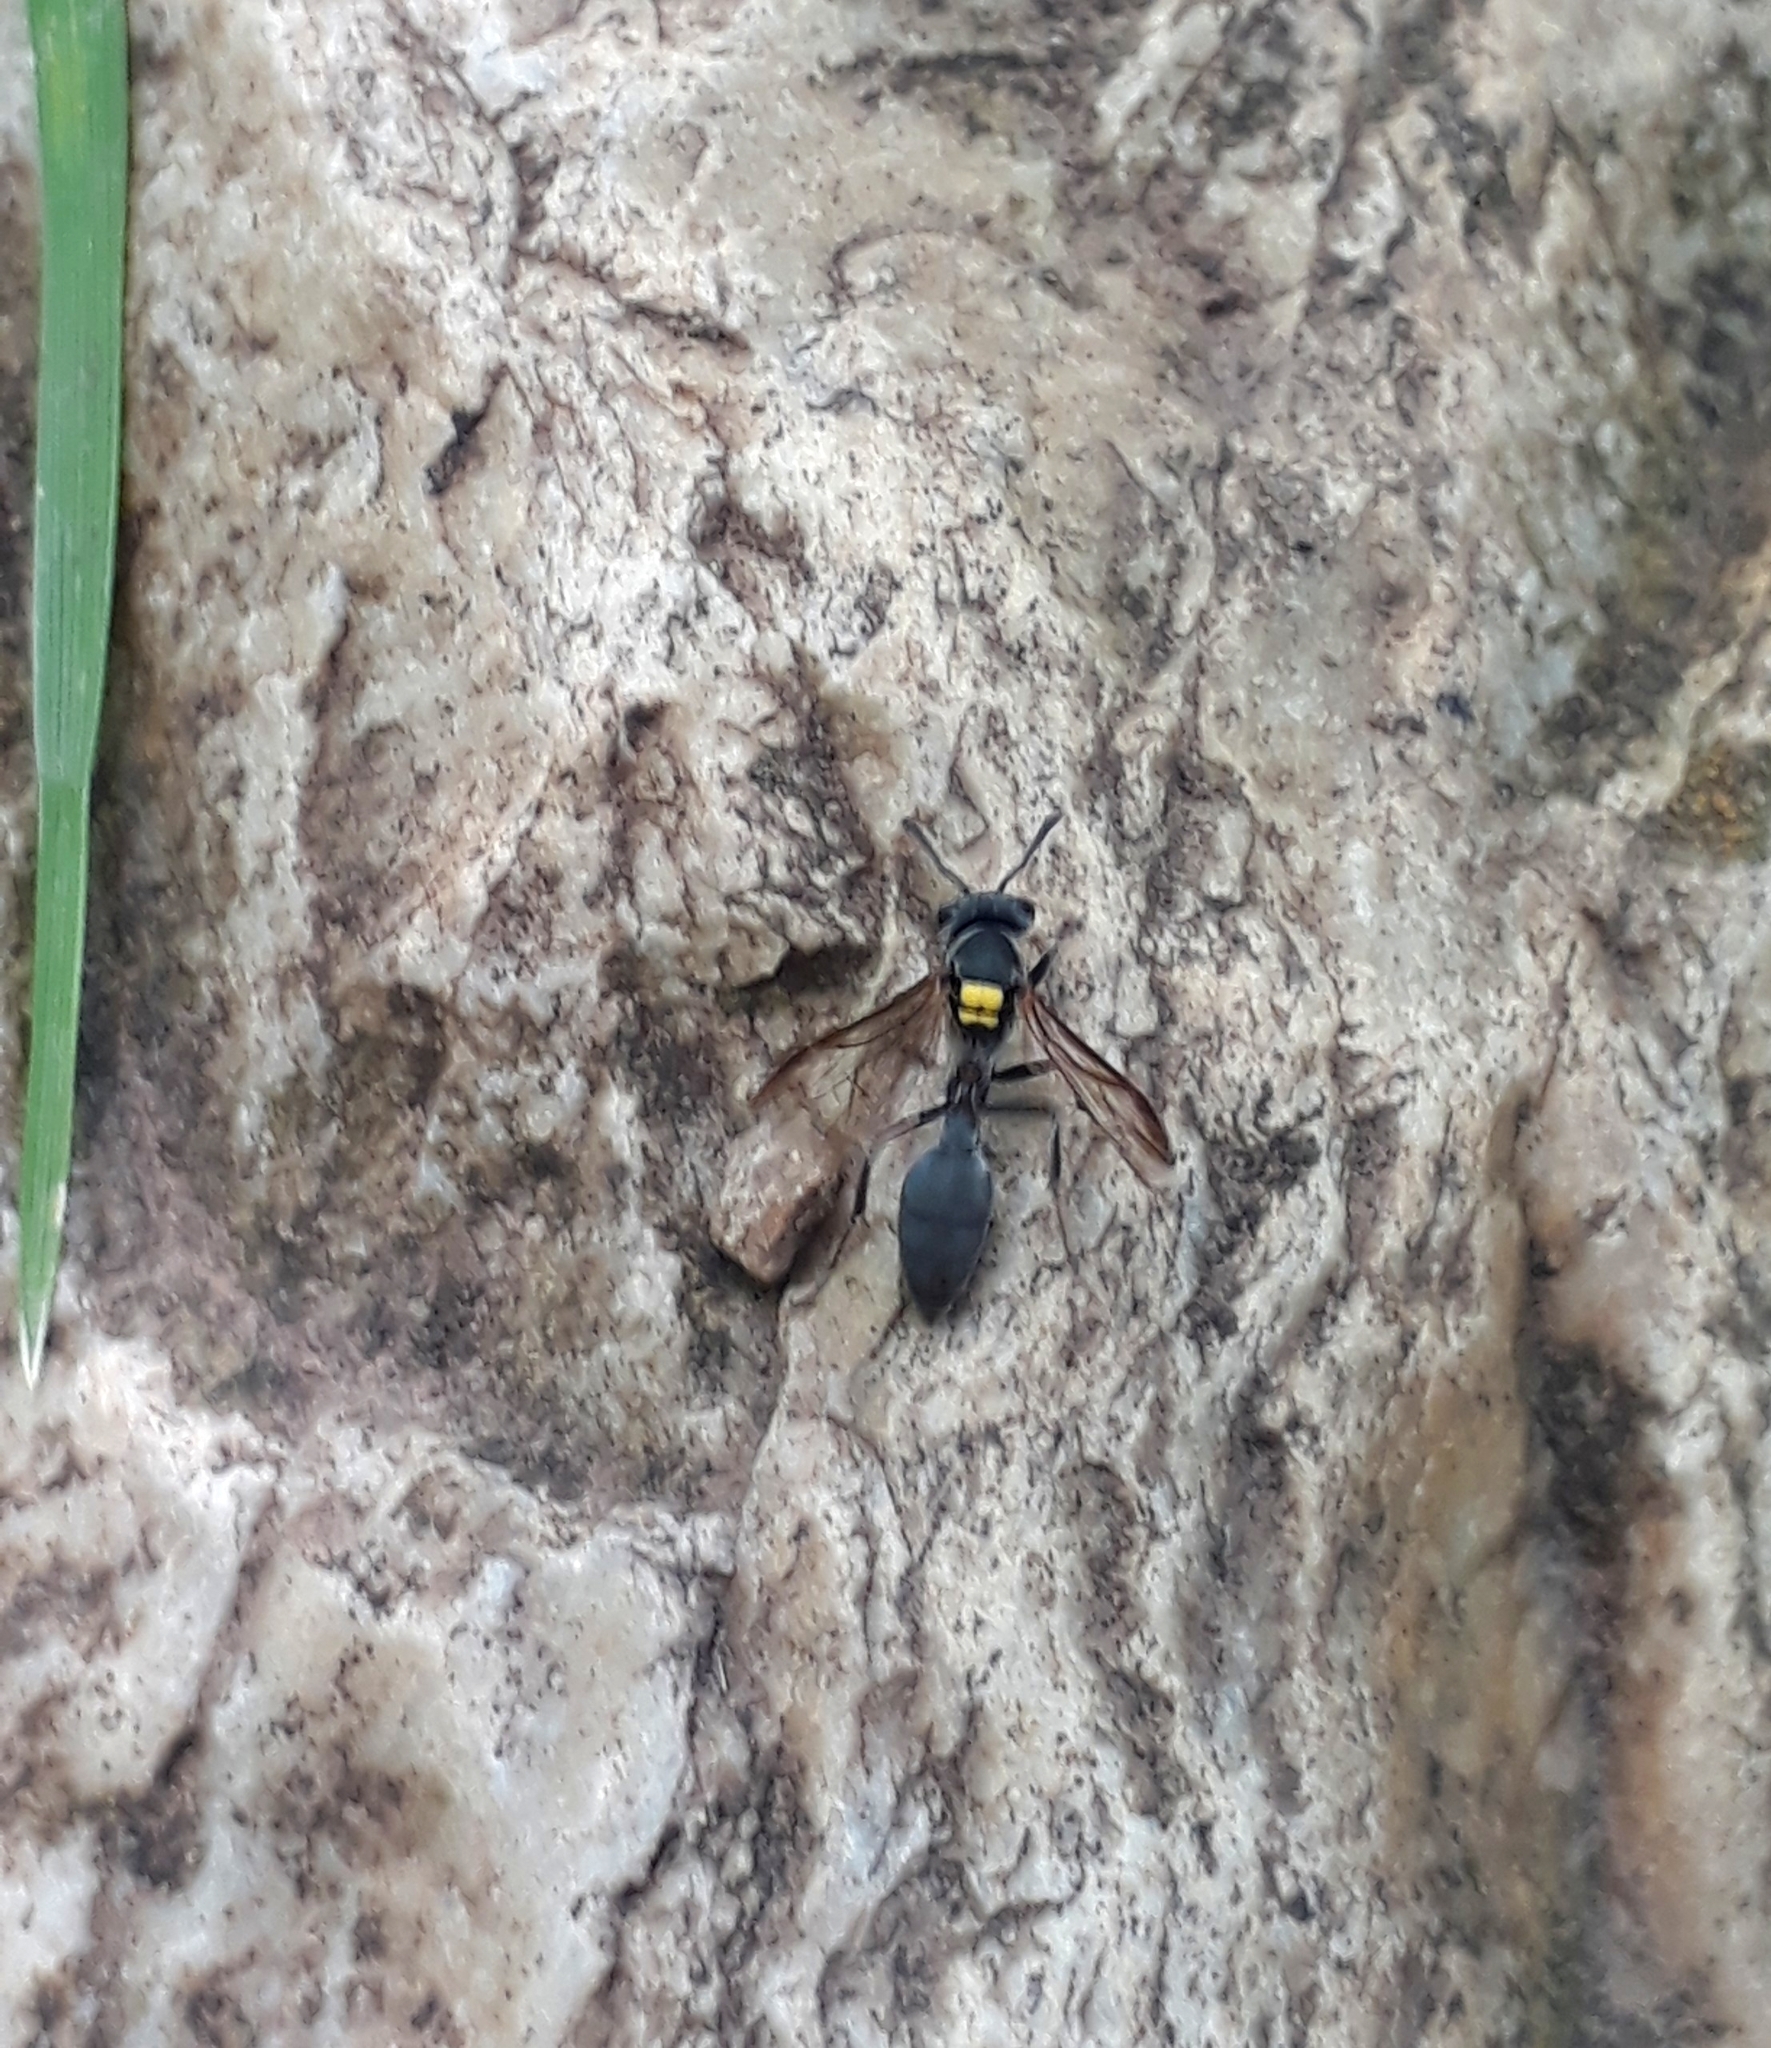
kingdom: Animalia
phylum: Arthropoda
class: Insecta
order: Hymenoptera
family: Eumenidae
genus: Polybia
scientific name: Polybia scutellaris
